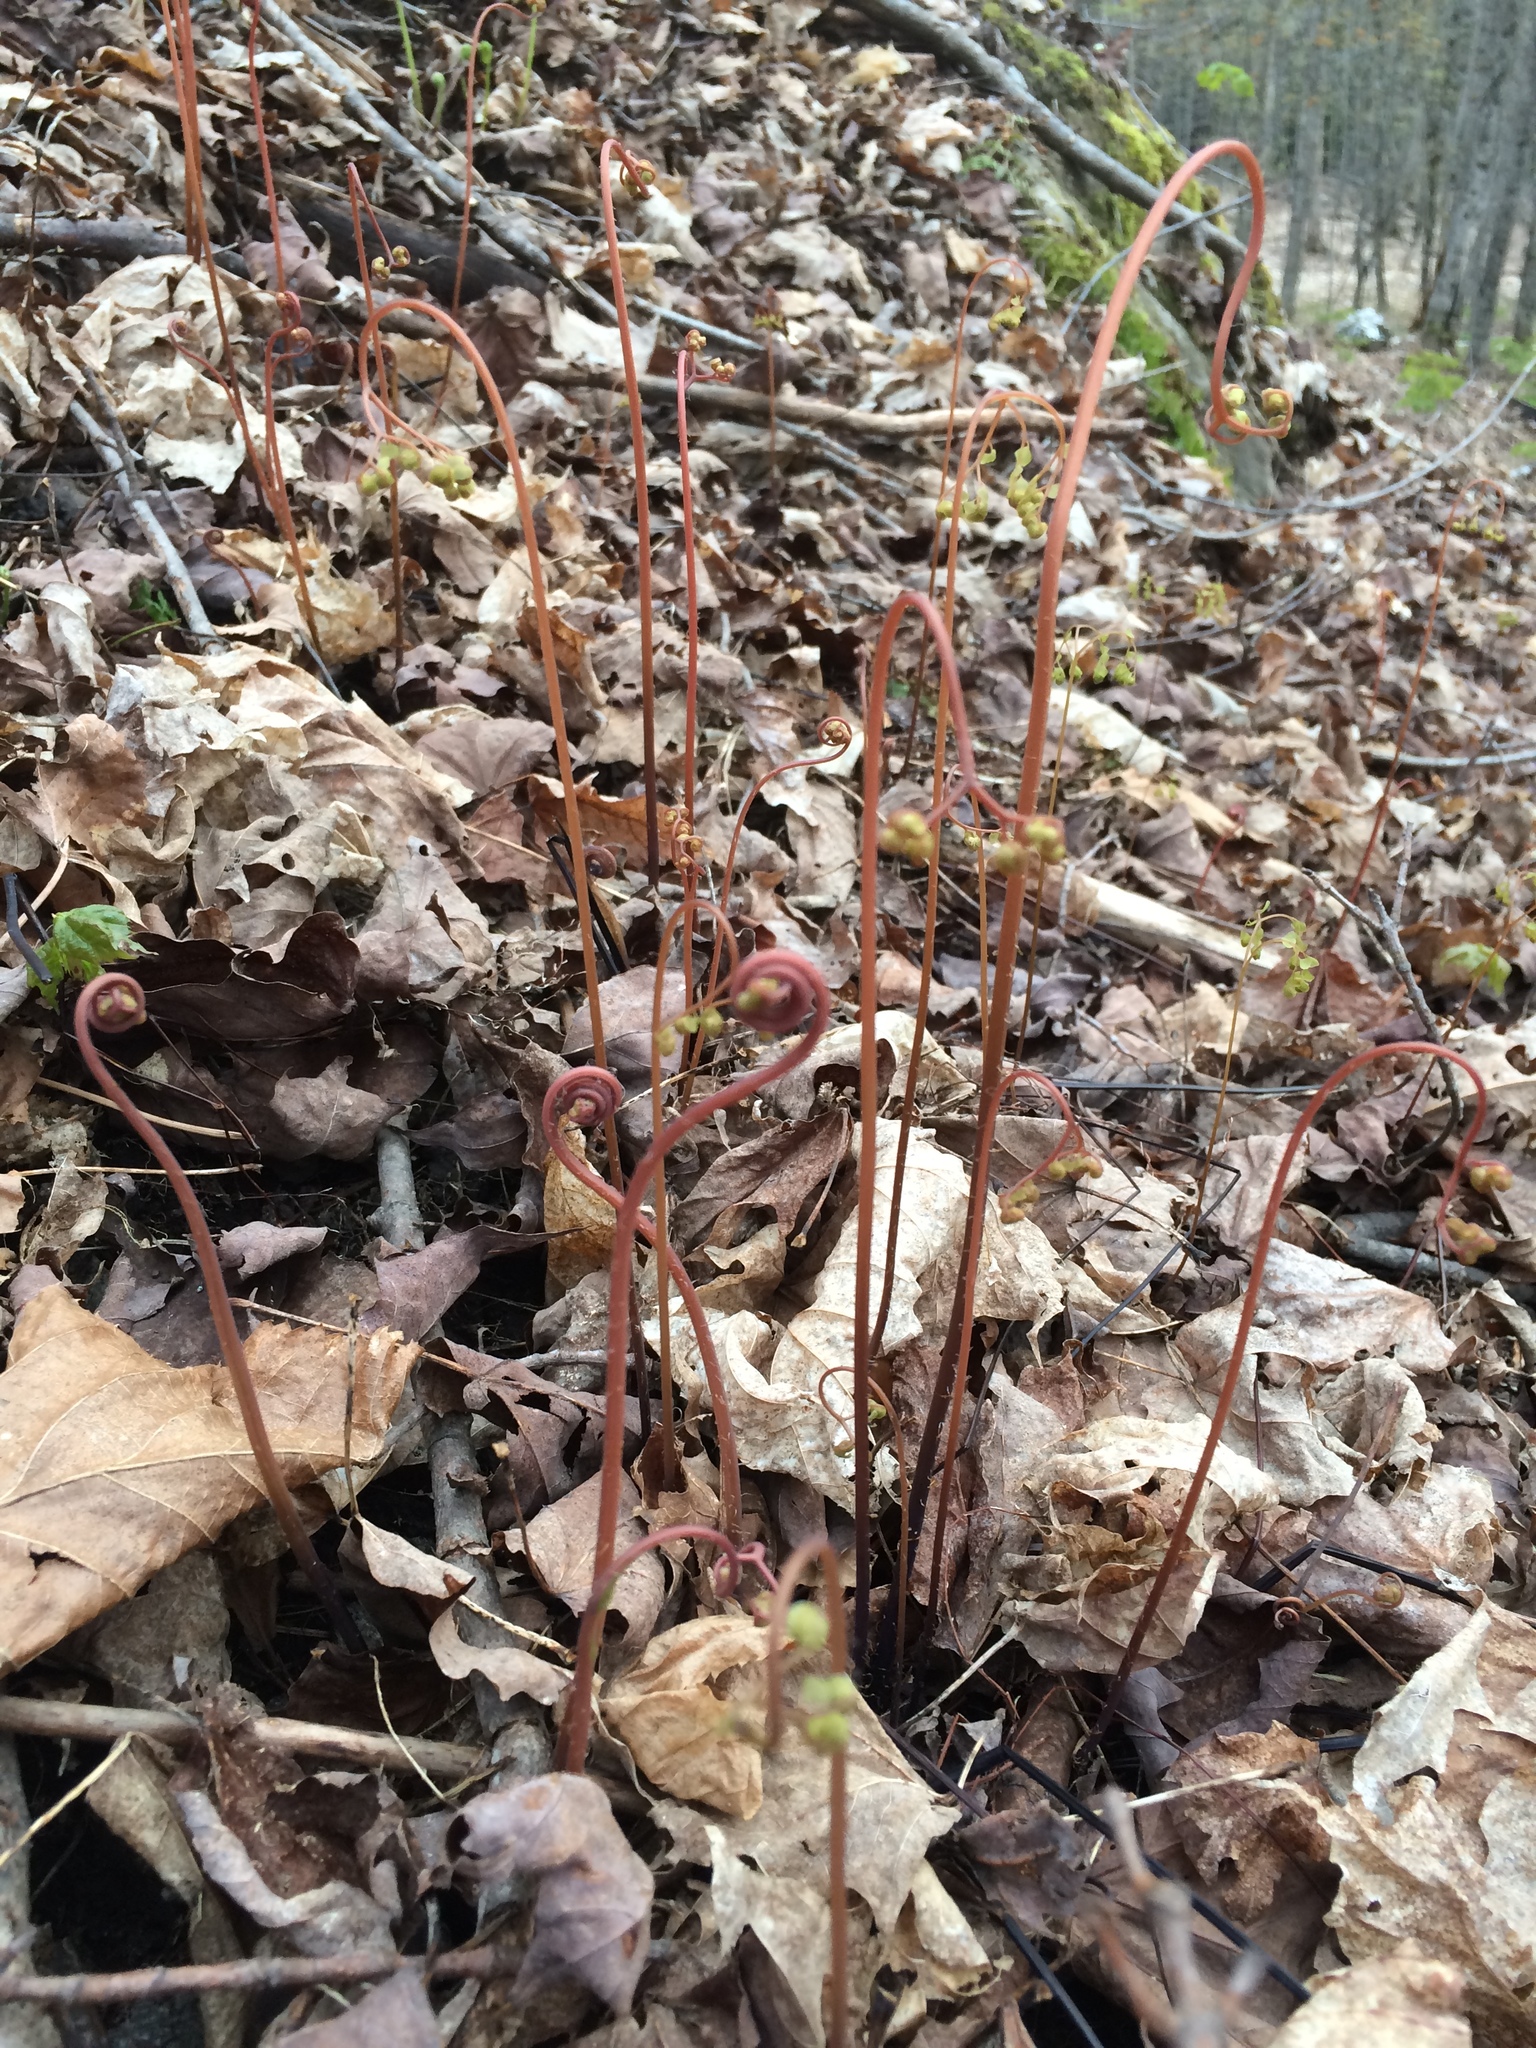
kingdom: Plantae
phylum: Tracheophyta
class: Polypodiopsida
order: Polypodiales
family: Pteridaceae
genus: Adiantum
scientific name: Adiantum pedatum
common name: Five-finger fern
